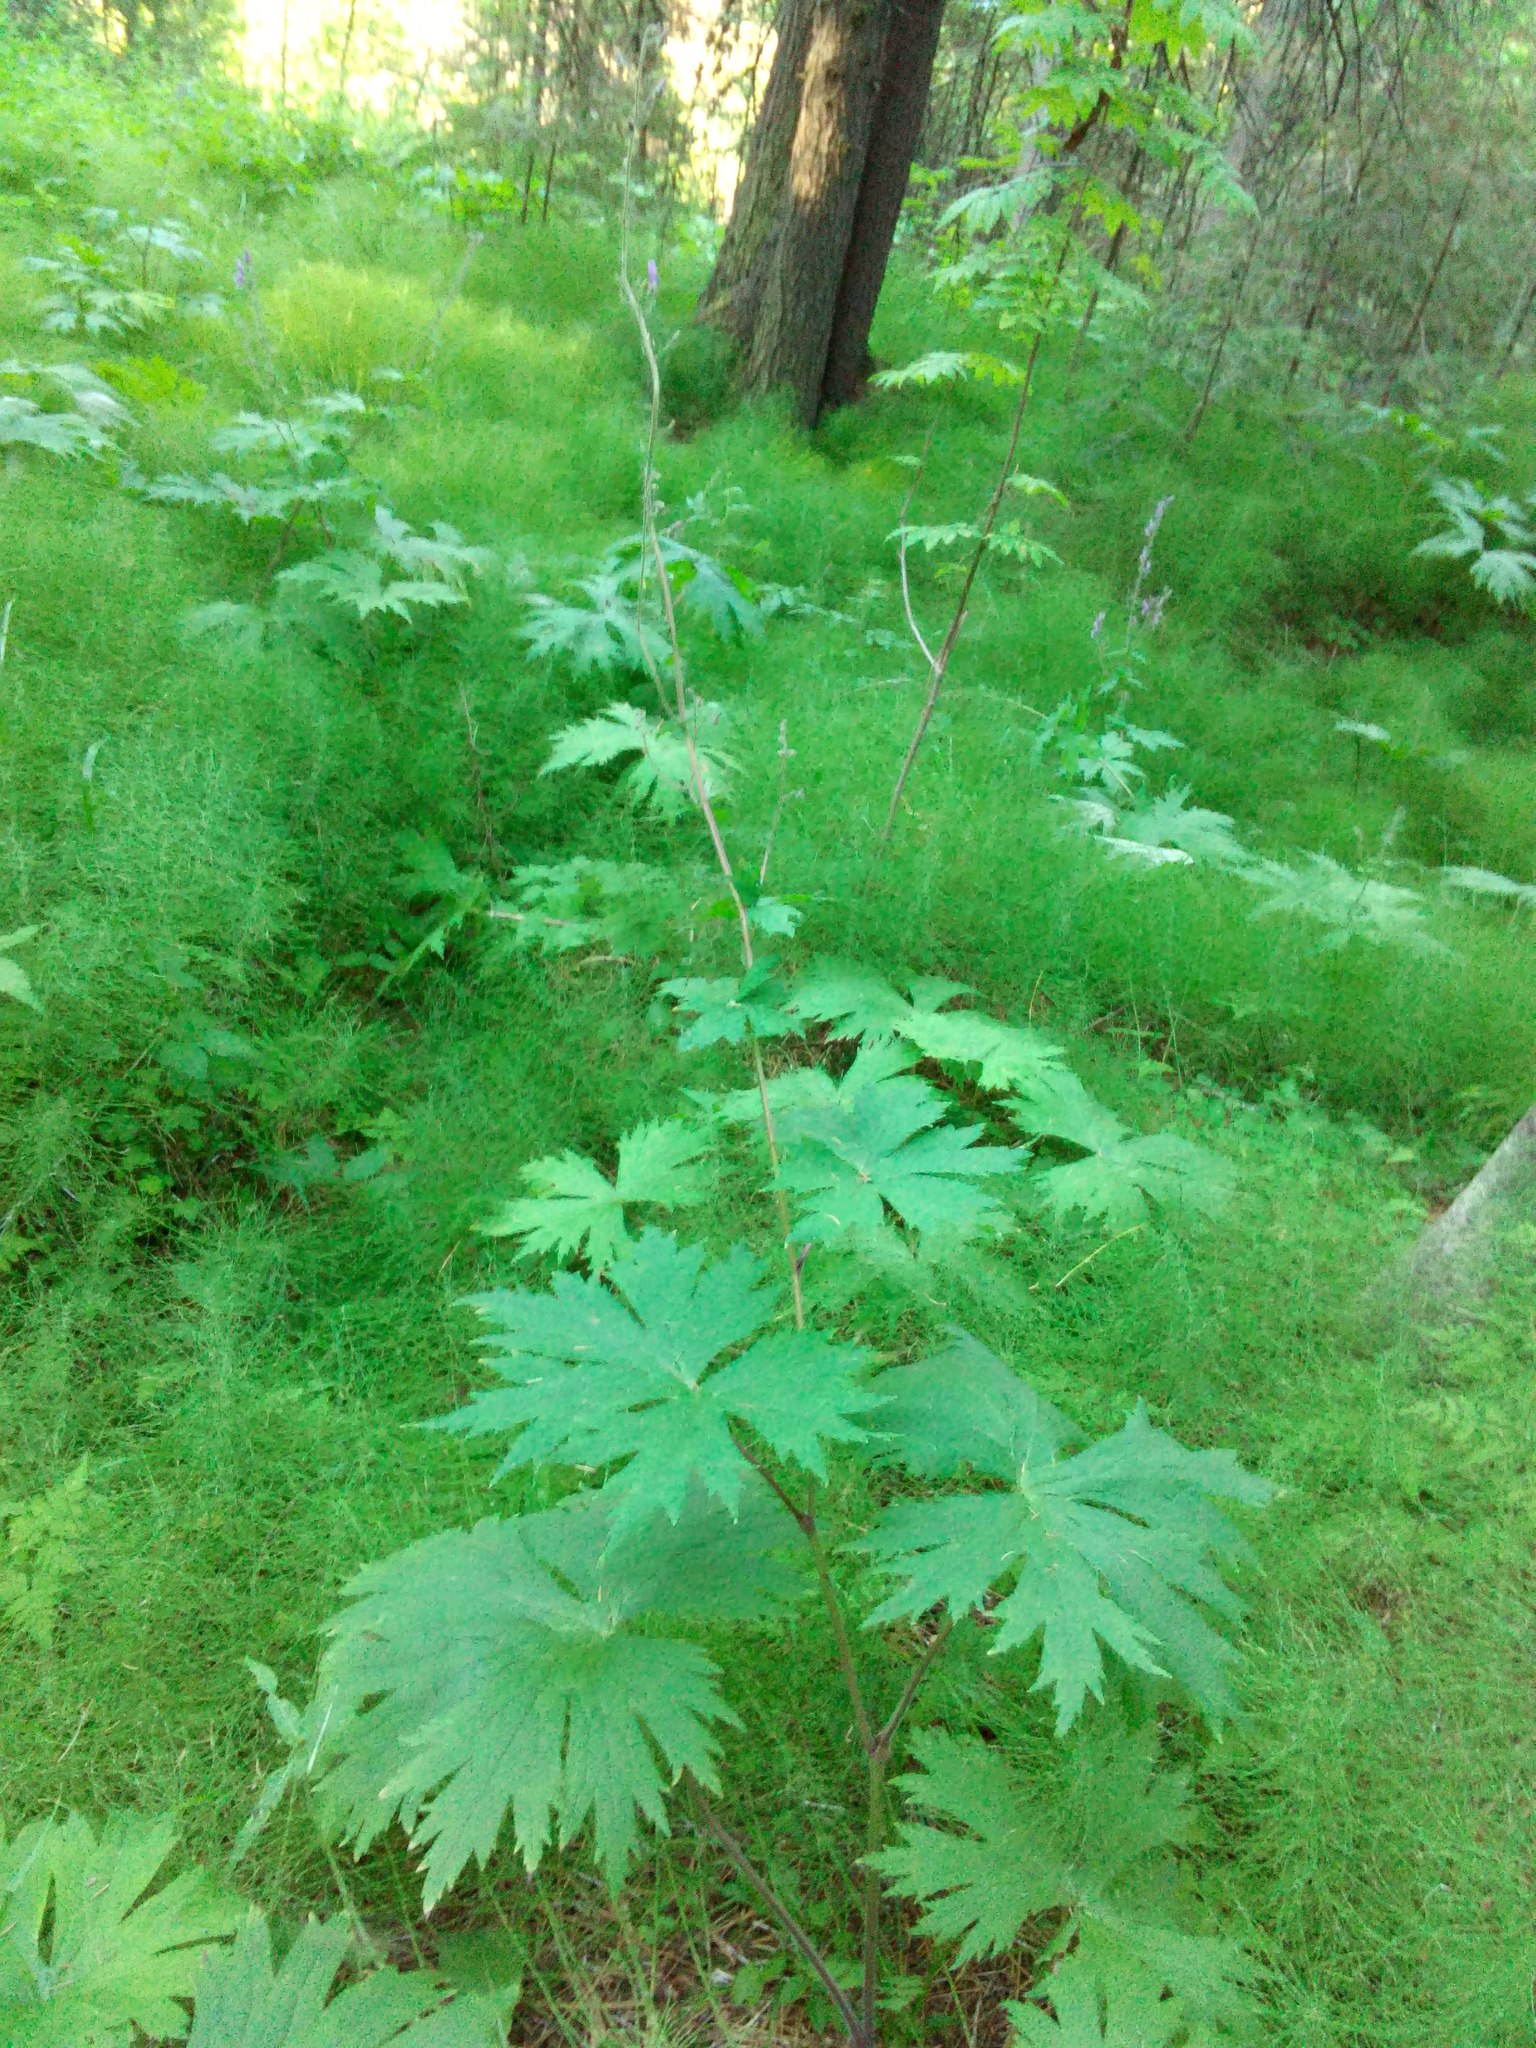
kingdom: Plantae
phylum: Tracheophyta
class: Magnoliopsida
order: Ranunculales
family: Ranunculaceae
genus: Aconitum
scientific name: Aconitum septentrionale
